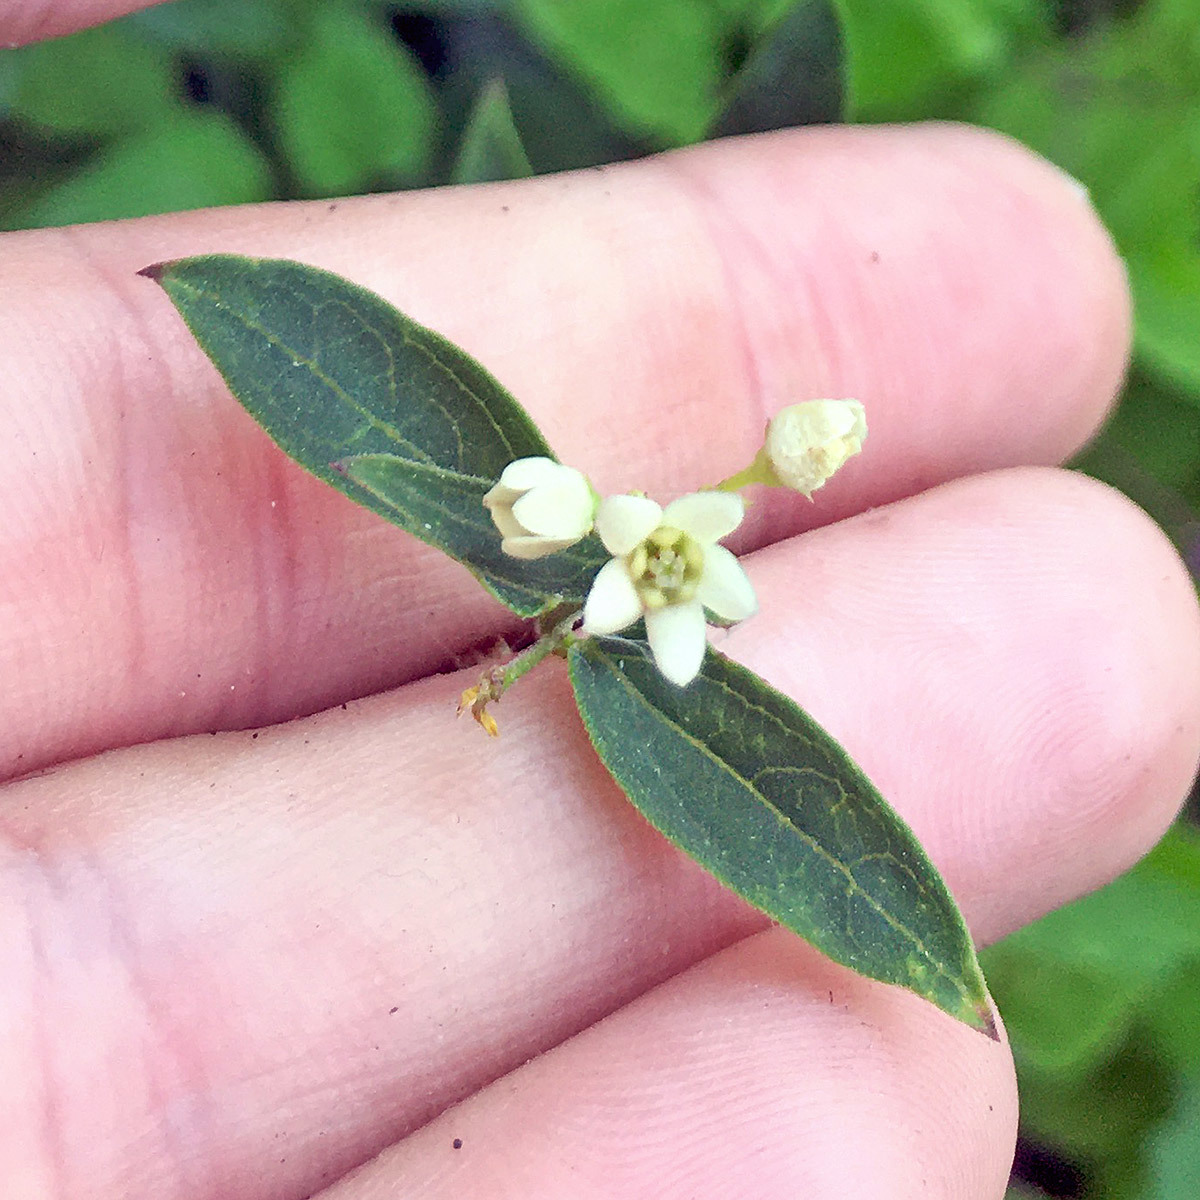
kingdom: Plantae
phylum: Tracheophyta
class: Magnoliopsida
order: Gentianales
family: Apocynaceae
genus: Vincetoxicum
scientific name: Vincetoxicum hirundinaria
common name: White swallowwort
